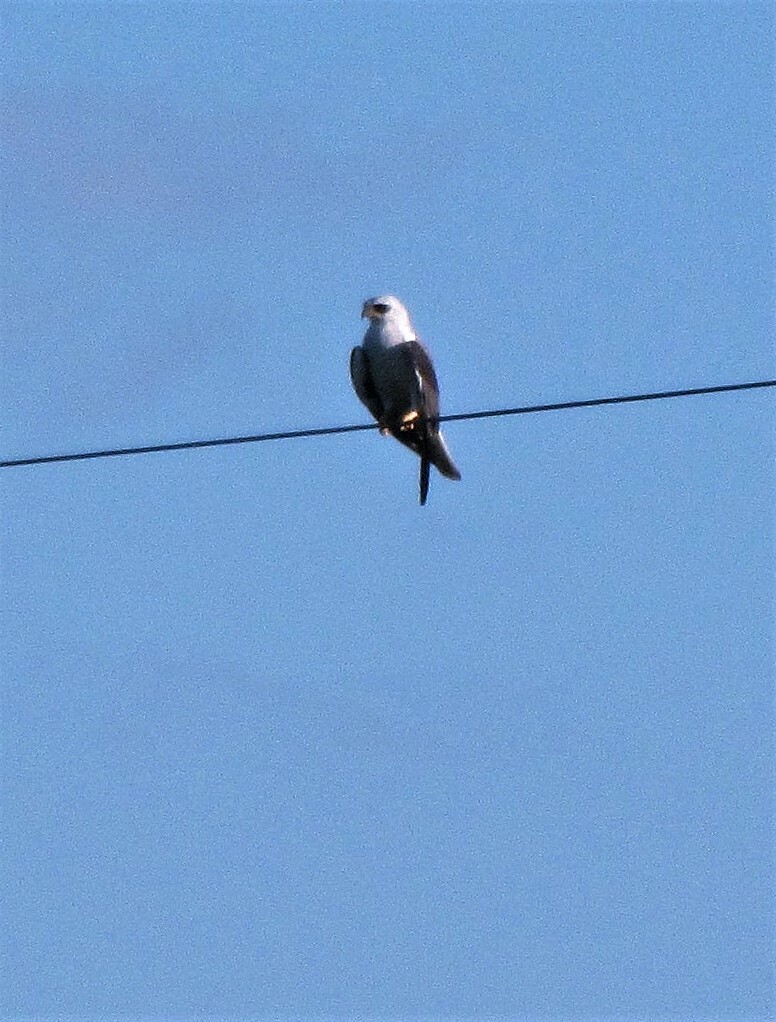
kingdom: Animalia
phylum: Chordata
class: Aves
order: Accipitriformes
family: Accipitridae
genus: Elanus
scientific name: Elanus leucurus
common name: White-tailed kite
